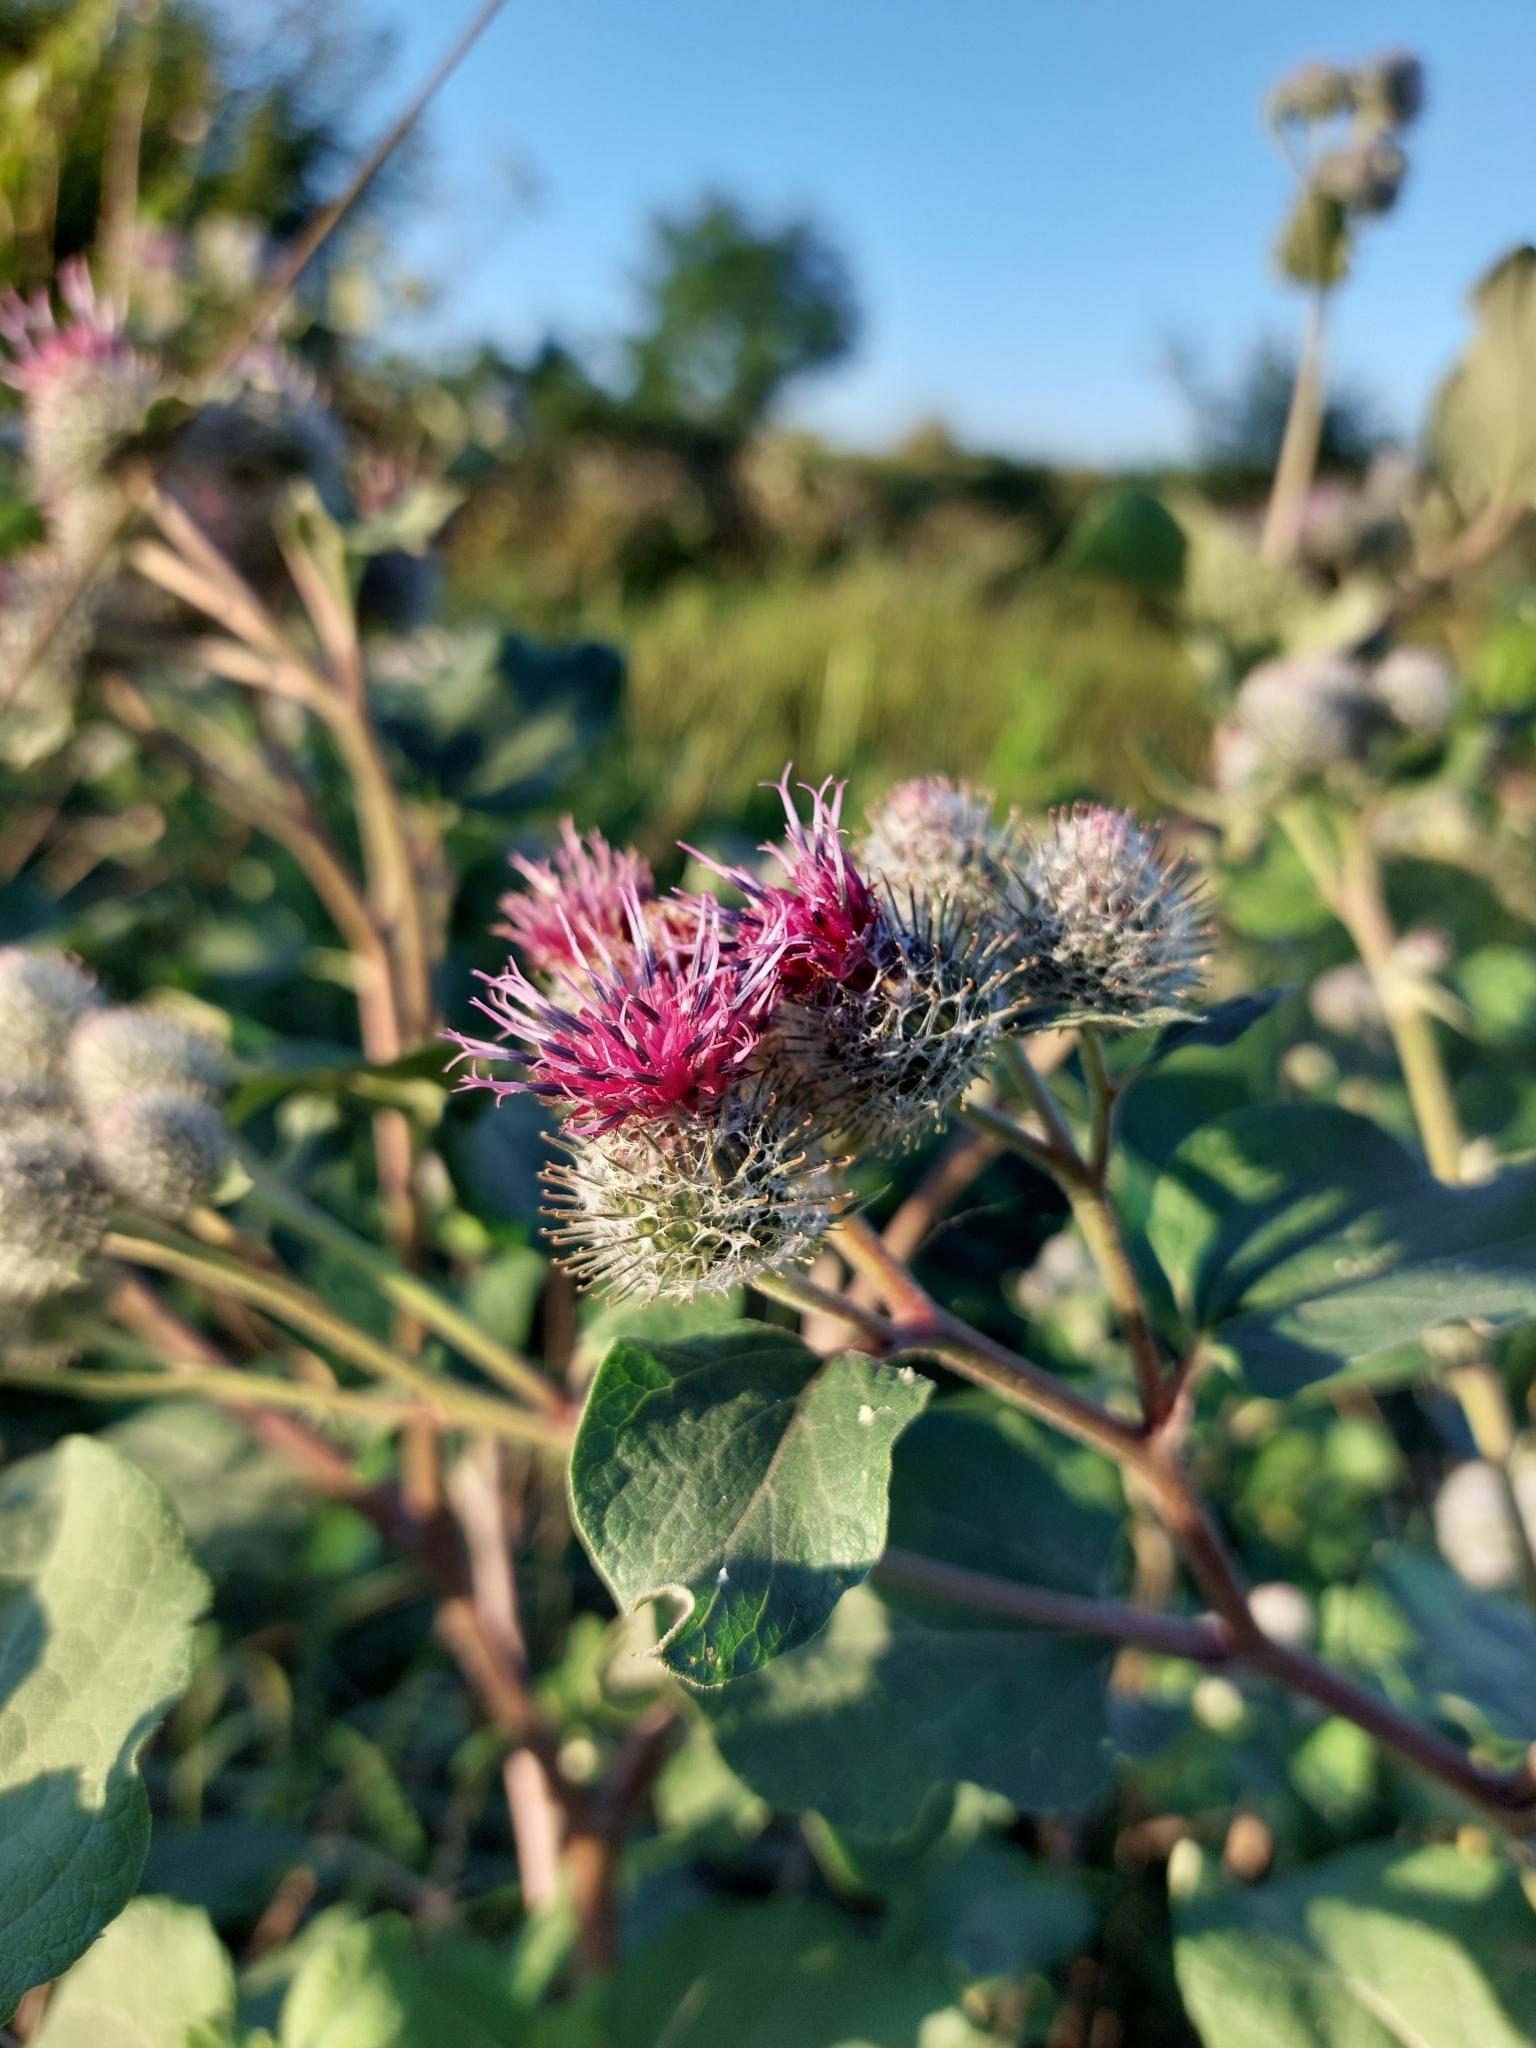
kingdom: Plantae
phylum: Tracheophyta
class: Magnoliopsida
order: Asterales
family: Asteraceae
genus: Arctium
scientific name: Arctium tomentosum
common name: Woolly burdock
